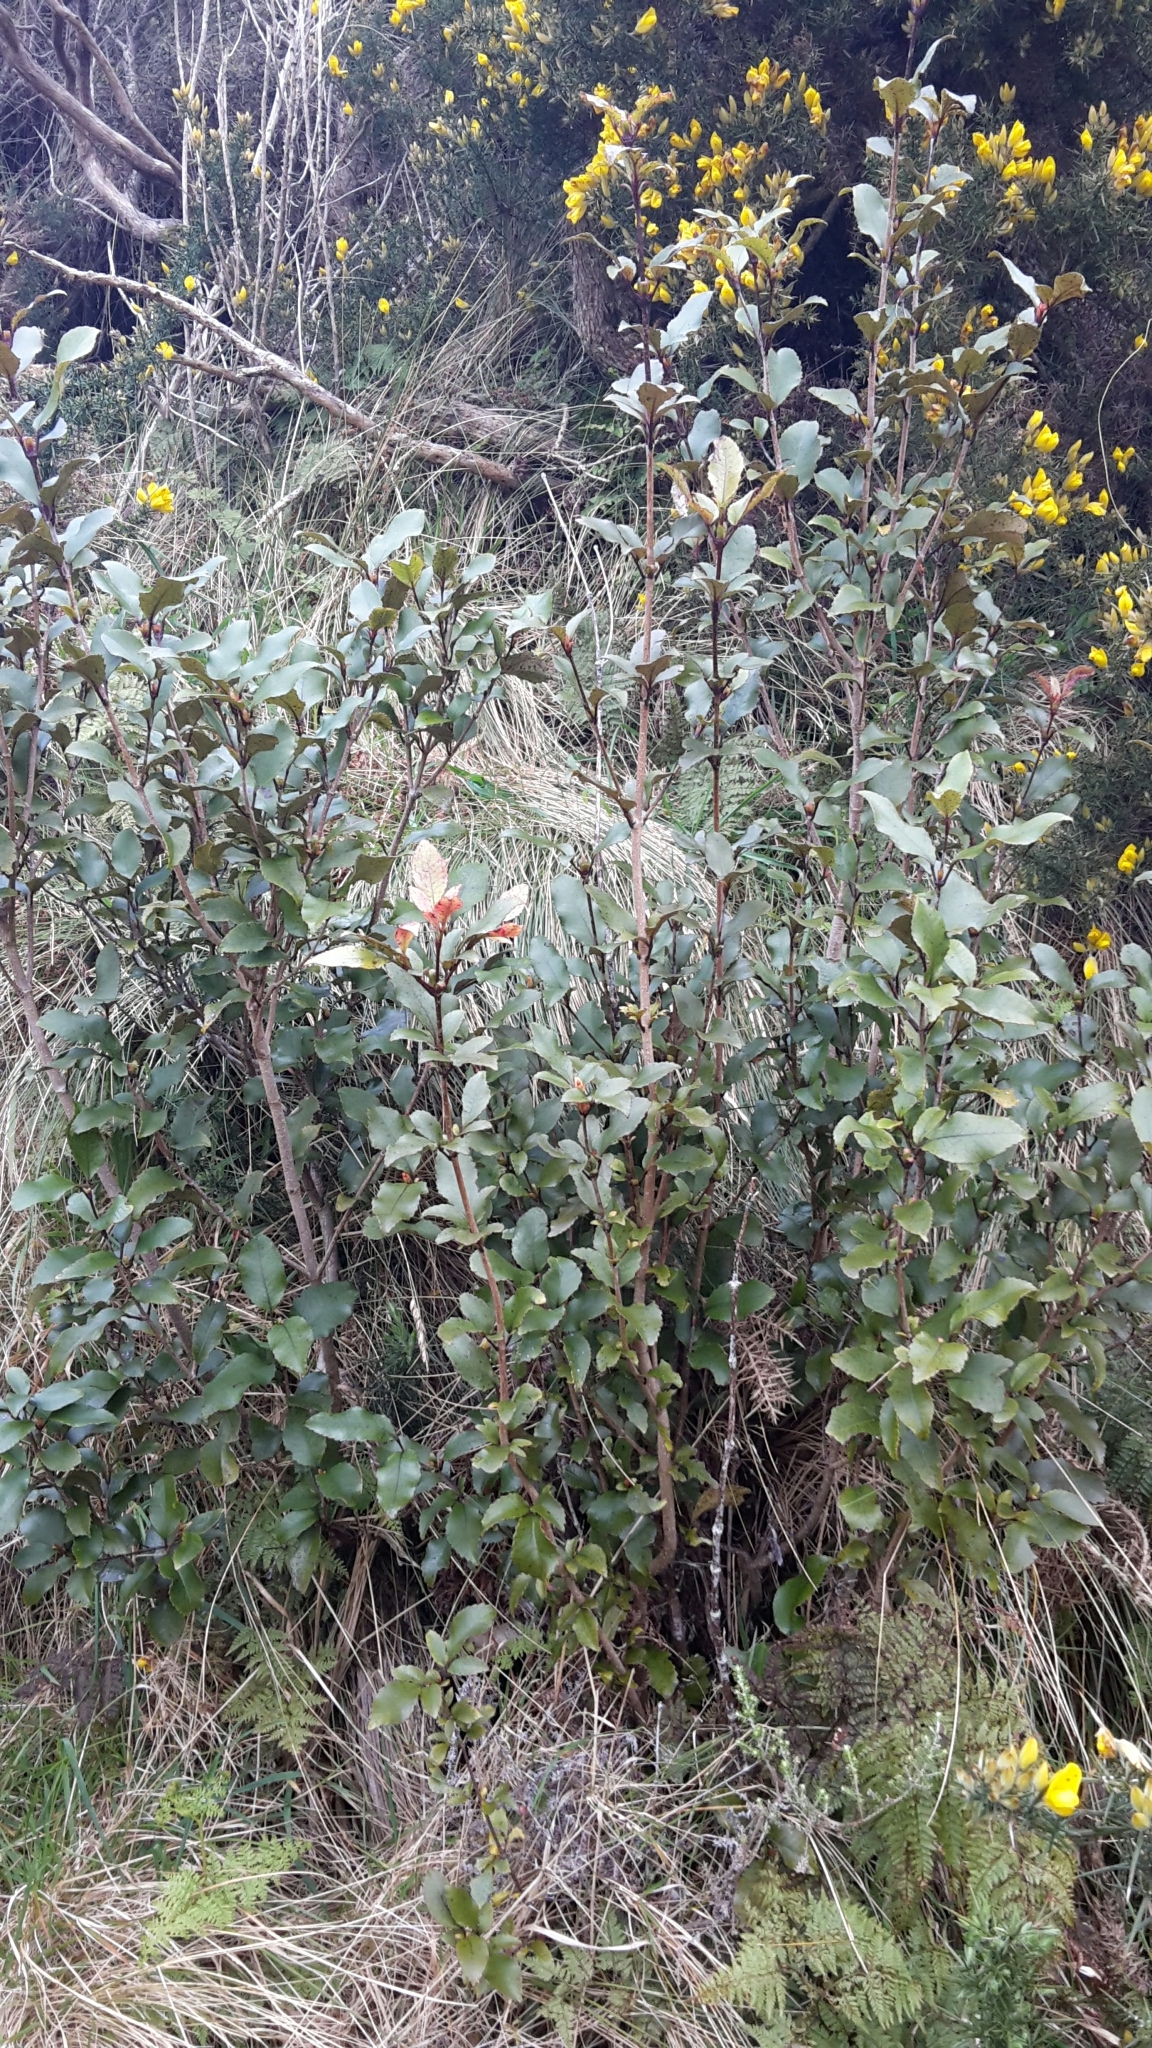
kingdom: Plantae
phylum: Tracheophyta
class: Magnoliopsida
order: Oxalidales
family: Cunoniaceae
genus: Pterophylla
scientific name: Pterophylla racemosa
